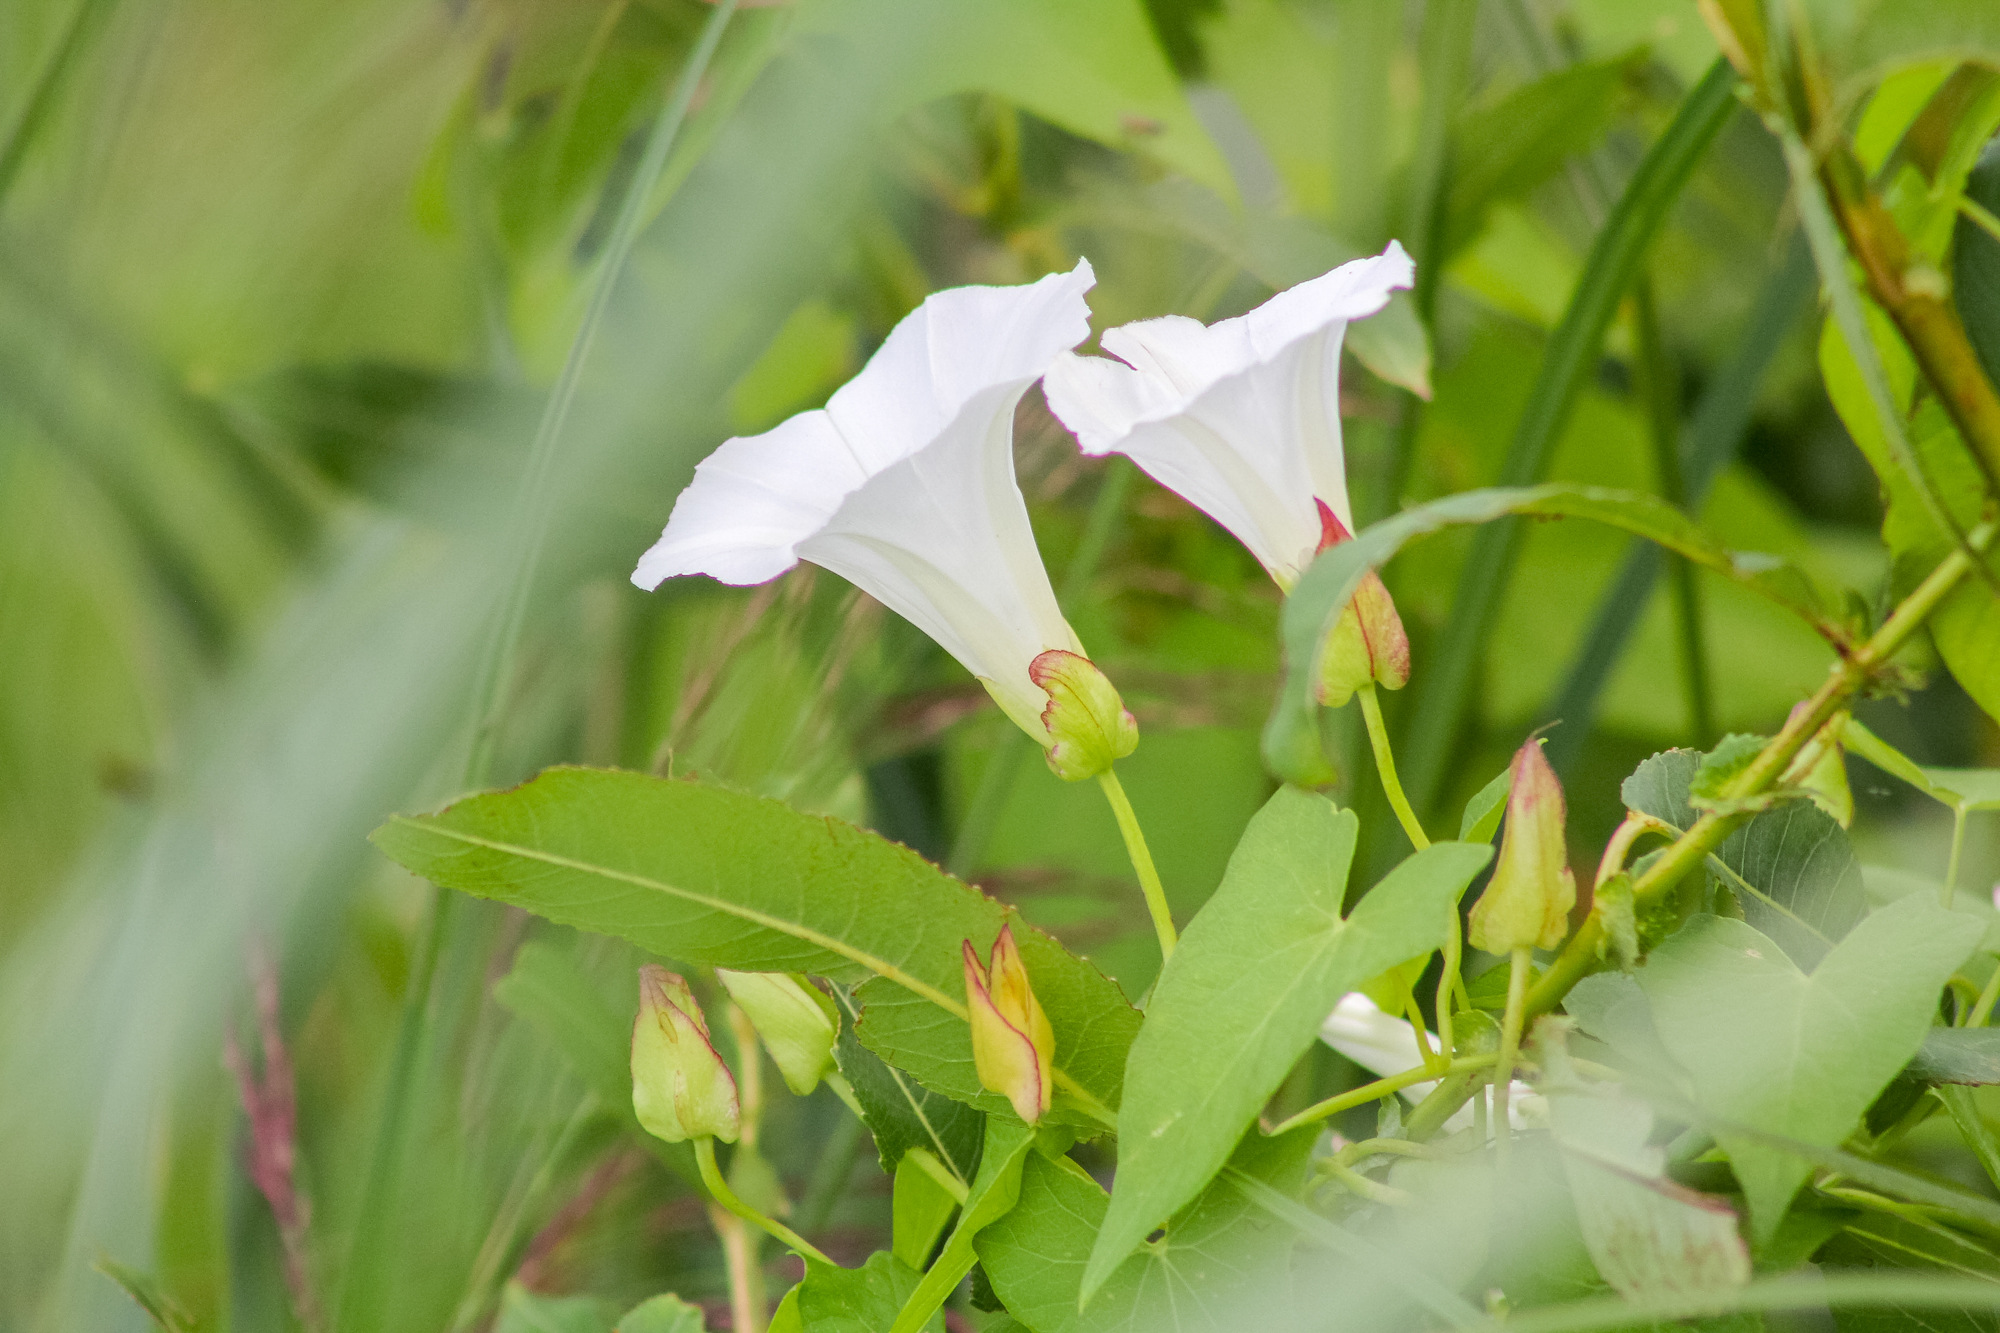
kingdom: Plantae
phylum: Tracheophyta
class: Magnoliopsida
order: Solanales
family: Convolvulaceae
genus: Calystegia
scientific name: Calystegia sepium
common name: Hedge bindweed
